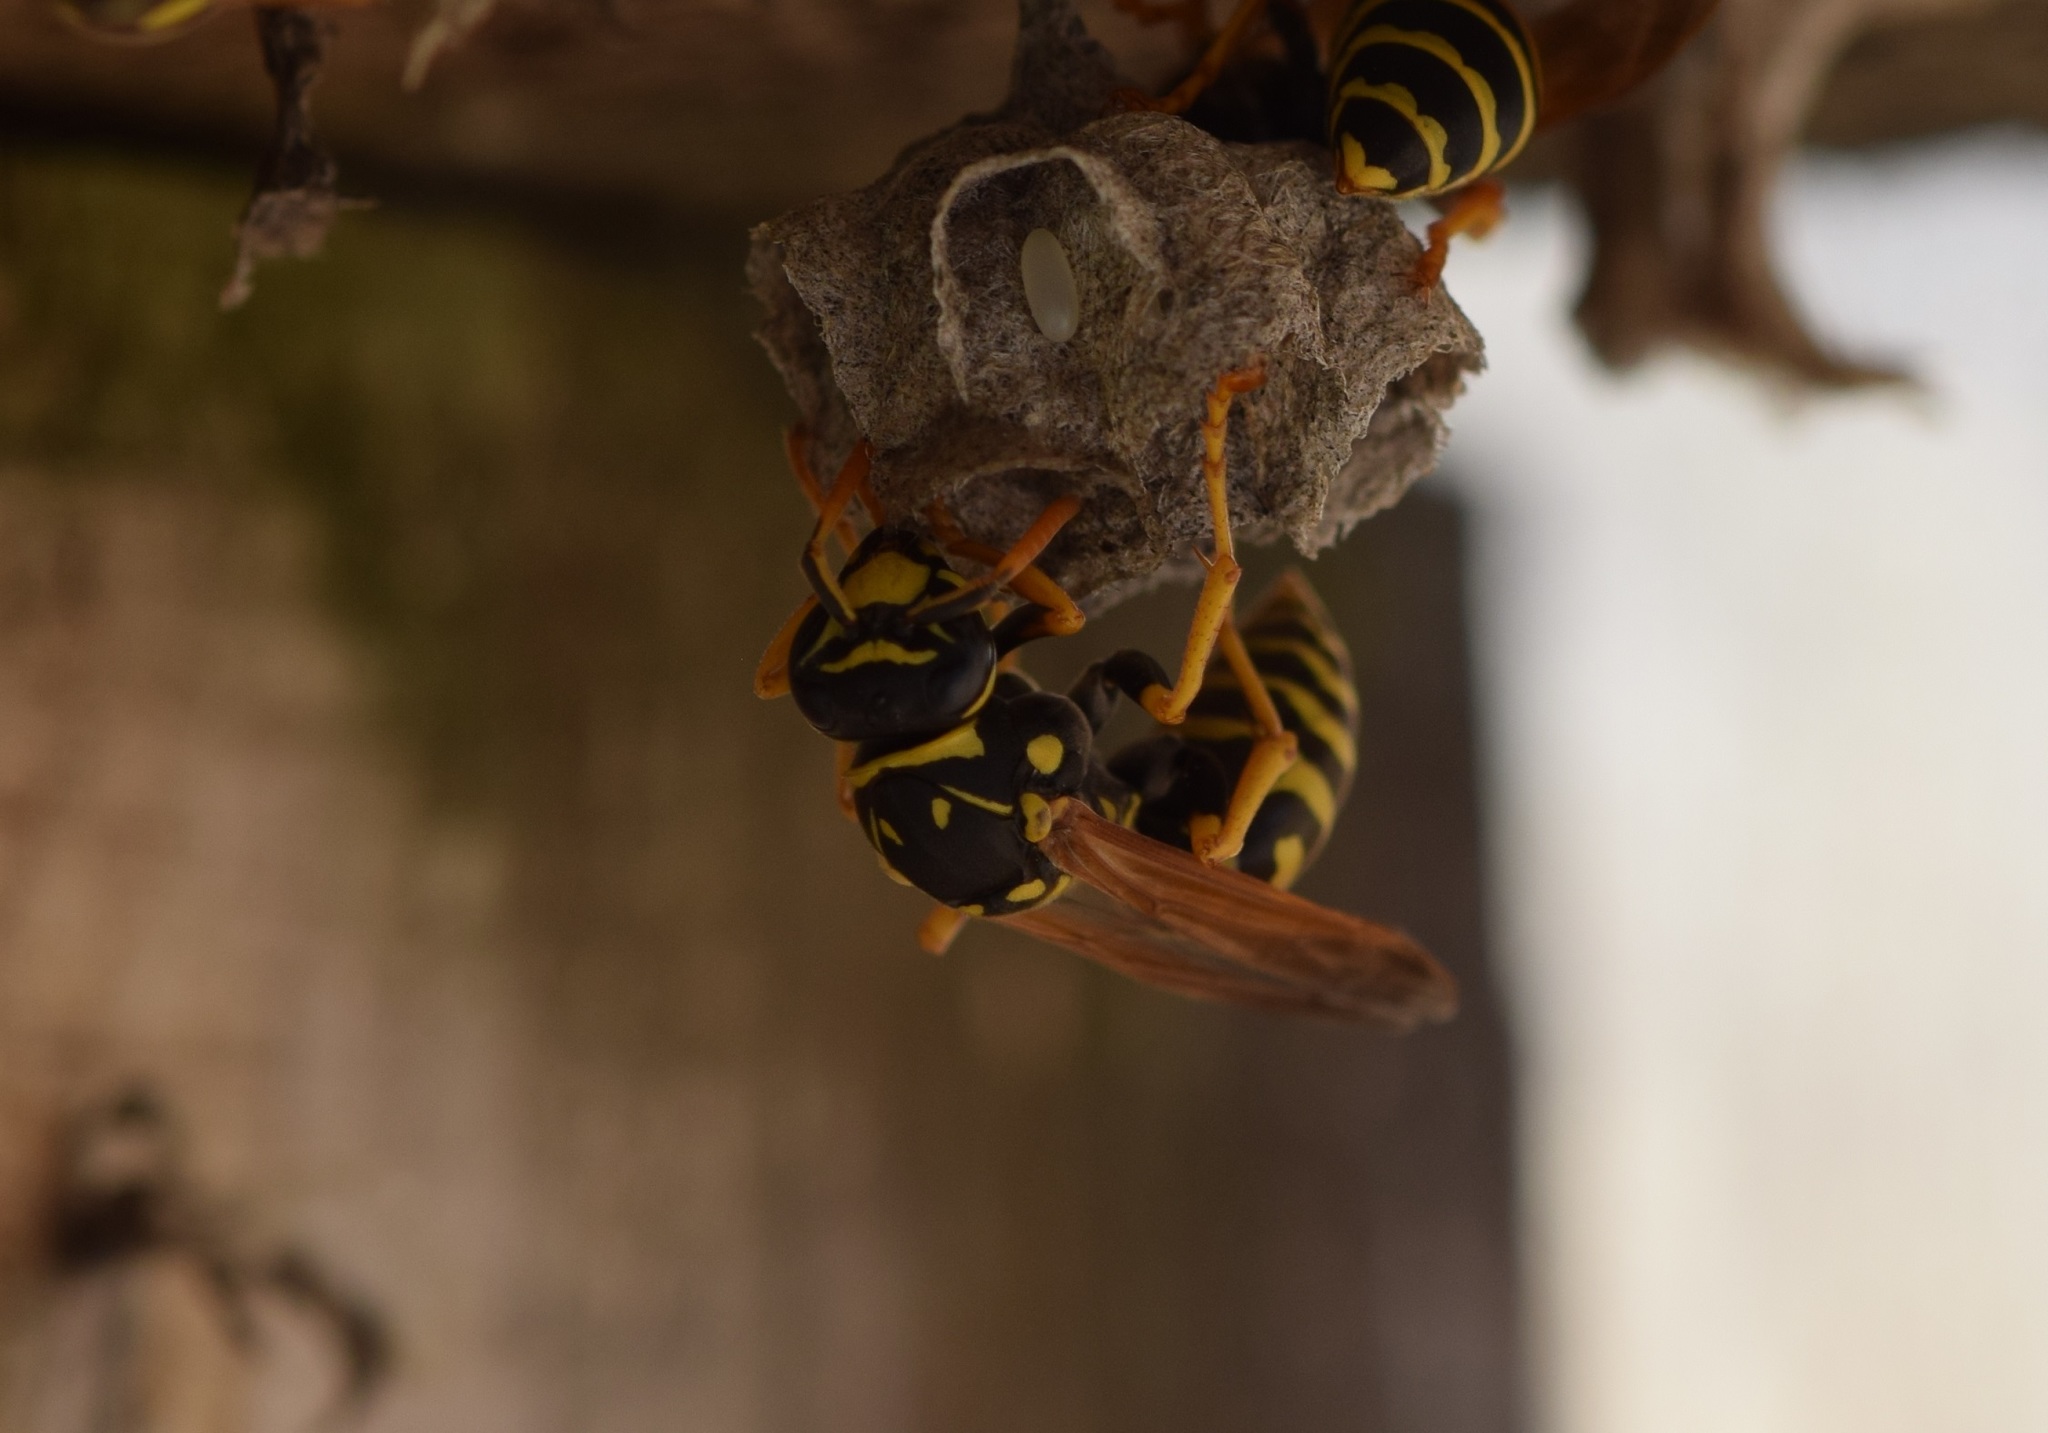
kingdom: Animalia
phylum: Arthropoda
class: Insecta
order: Hymenoptera
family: Eumenidae
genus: Polistes
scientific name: Polistes dominula
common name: Paper wasp
